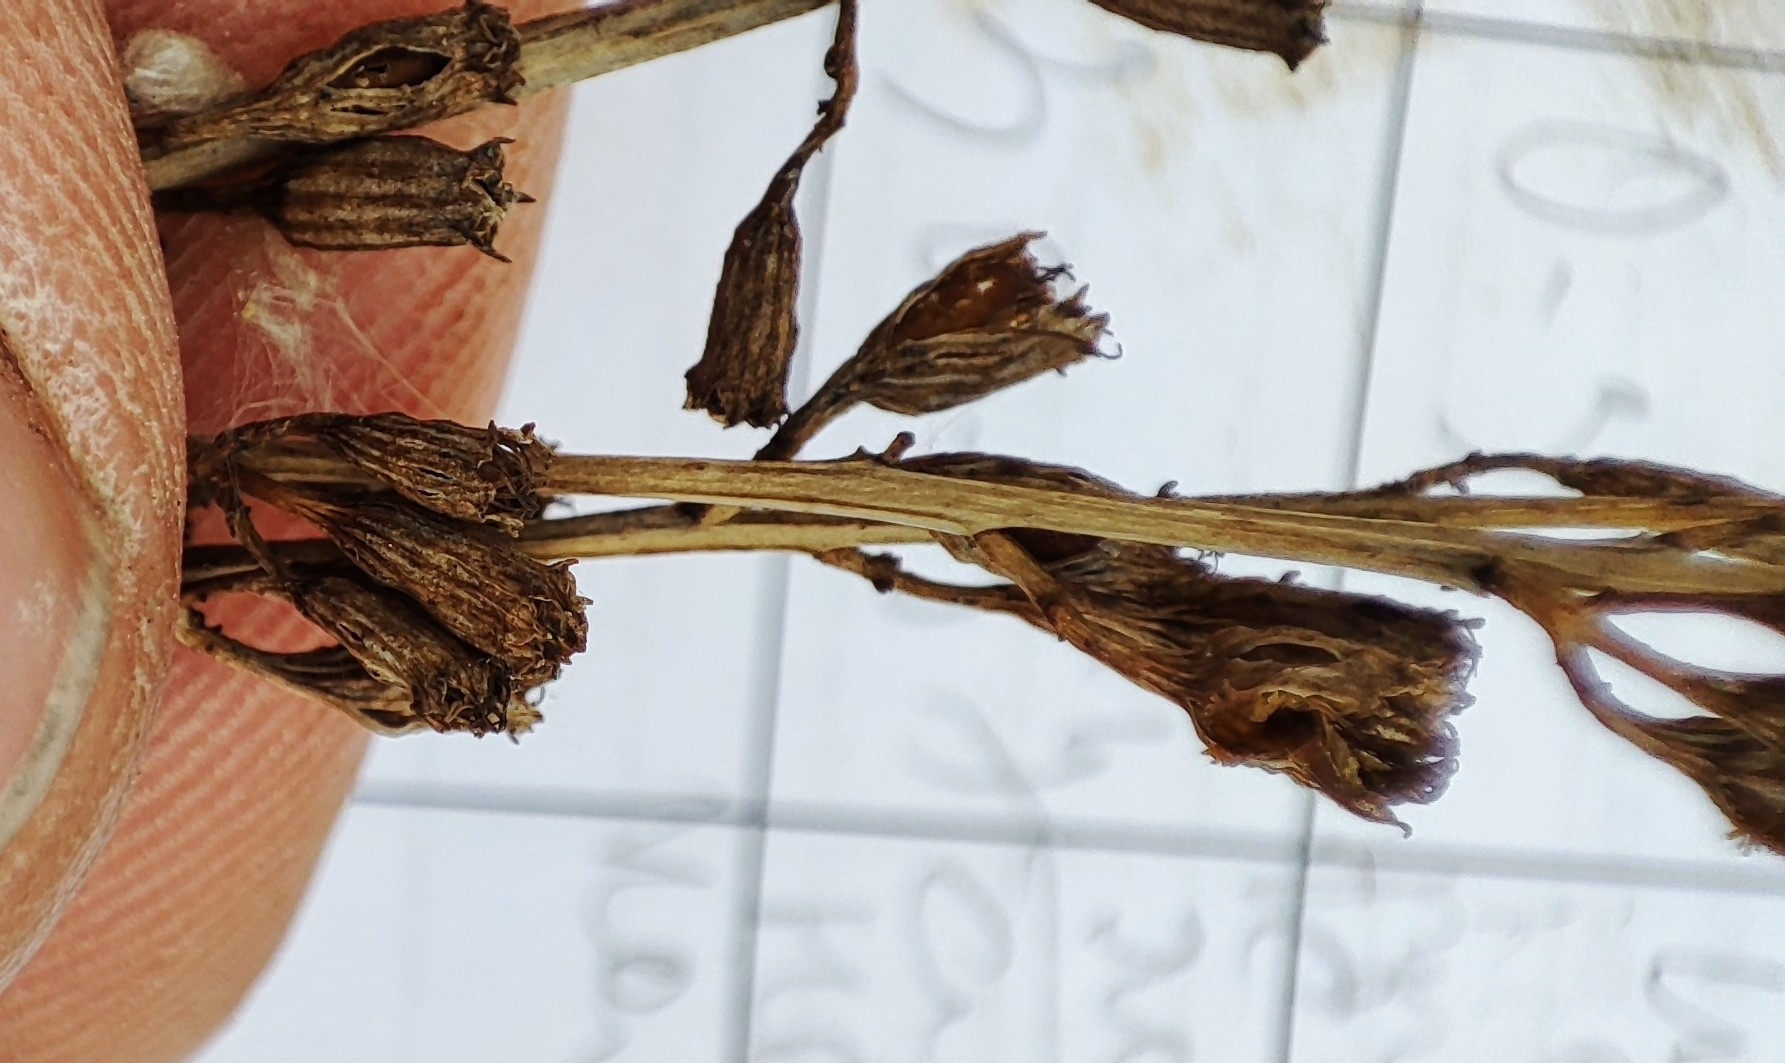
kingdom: Plantae
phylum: Tracheophyta
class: Magnoliopsida
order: Lamiales
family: Orobanchaceae
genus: Odontites
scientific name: Odontites vulgaris
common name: Broomrape
